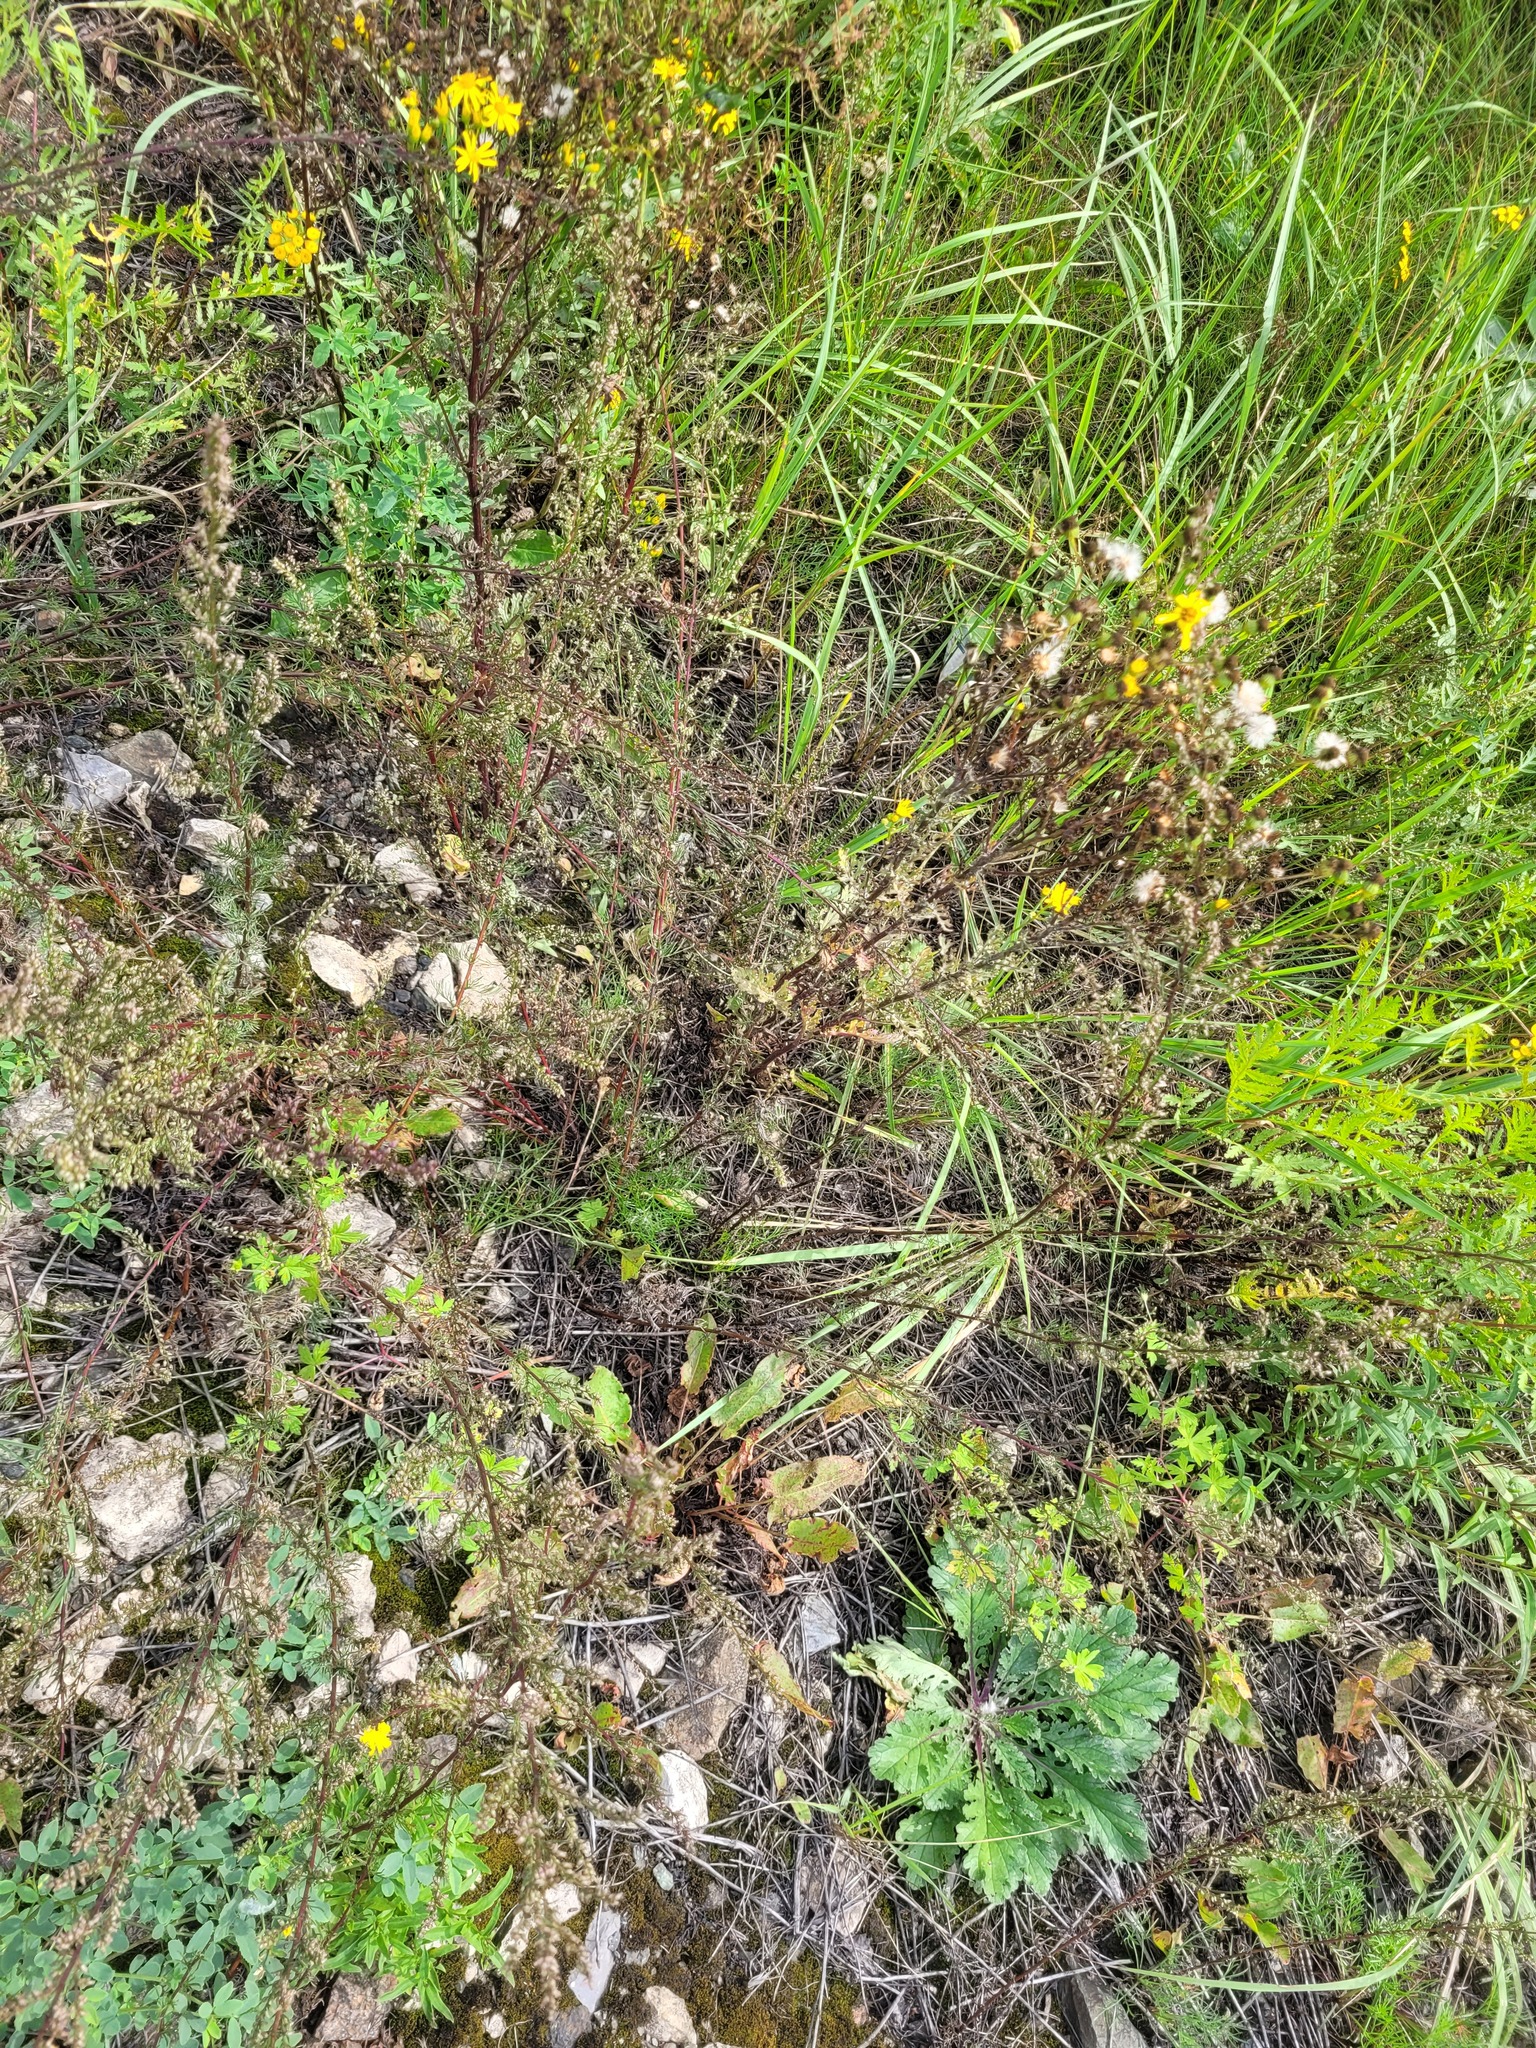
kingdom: Plantae
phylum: Tracheophyta
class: Magnoliopsida
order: Asterales
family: Asteraceae
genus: Jacobaea
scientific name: Jacobaea vulgaris
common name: Stinking willie
